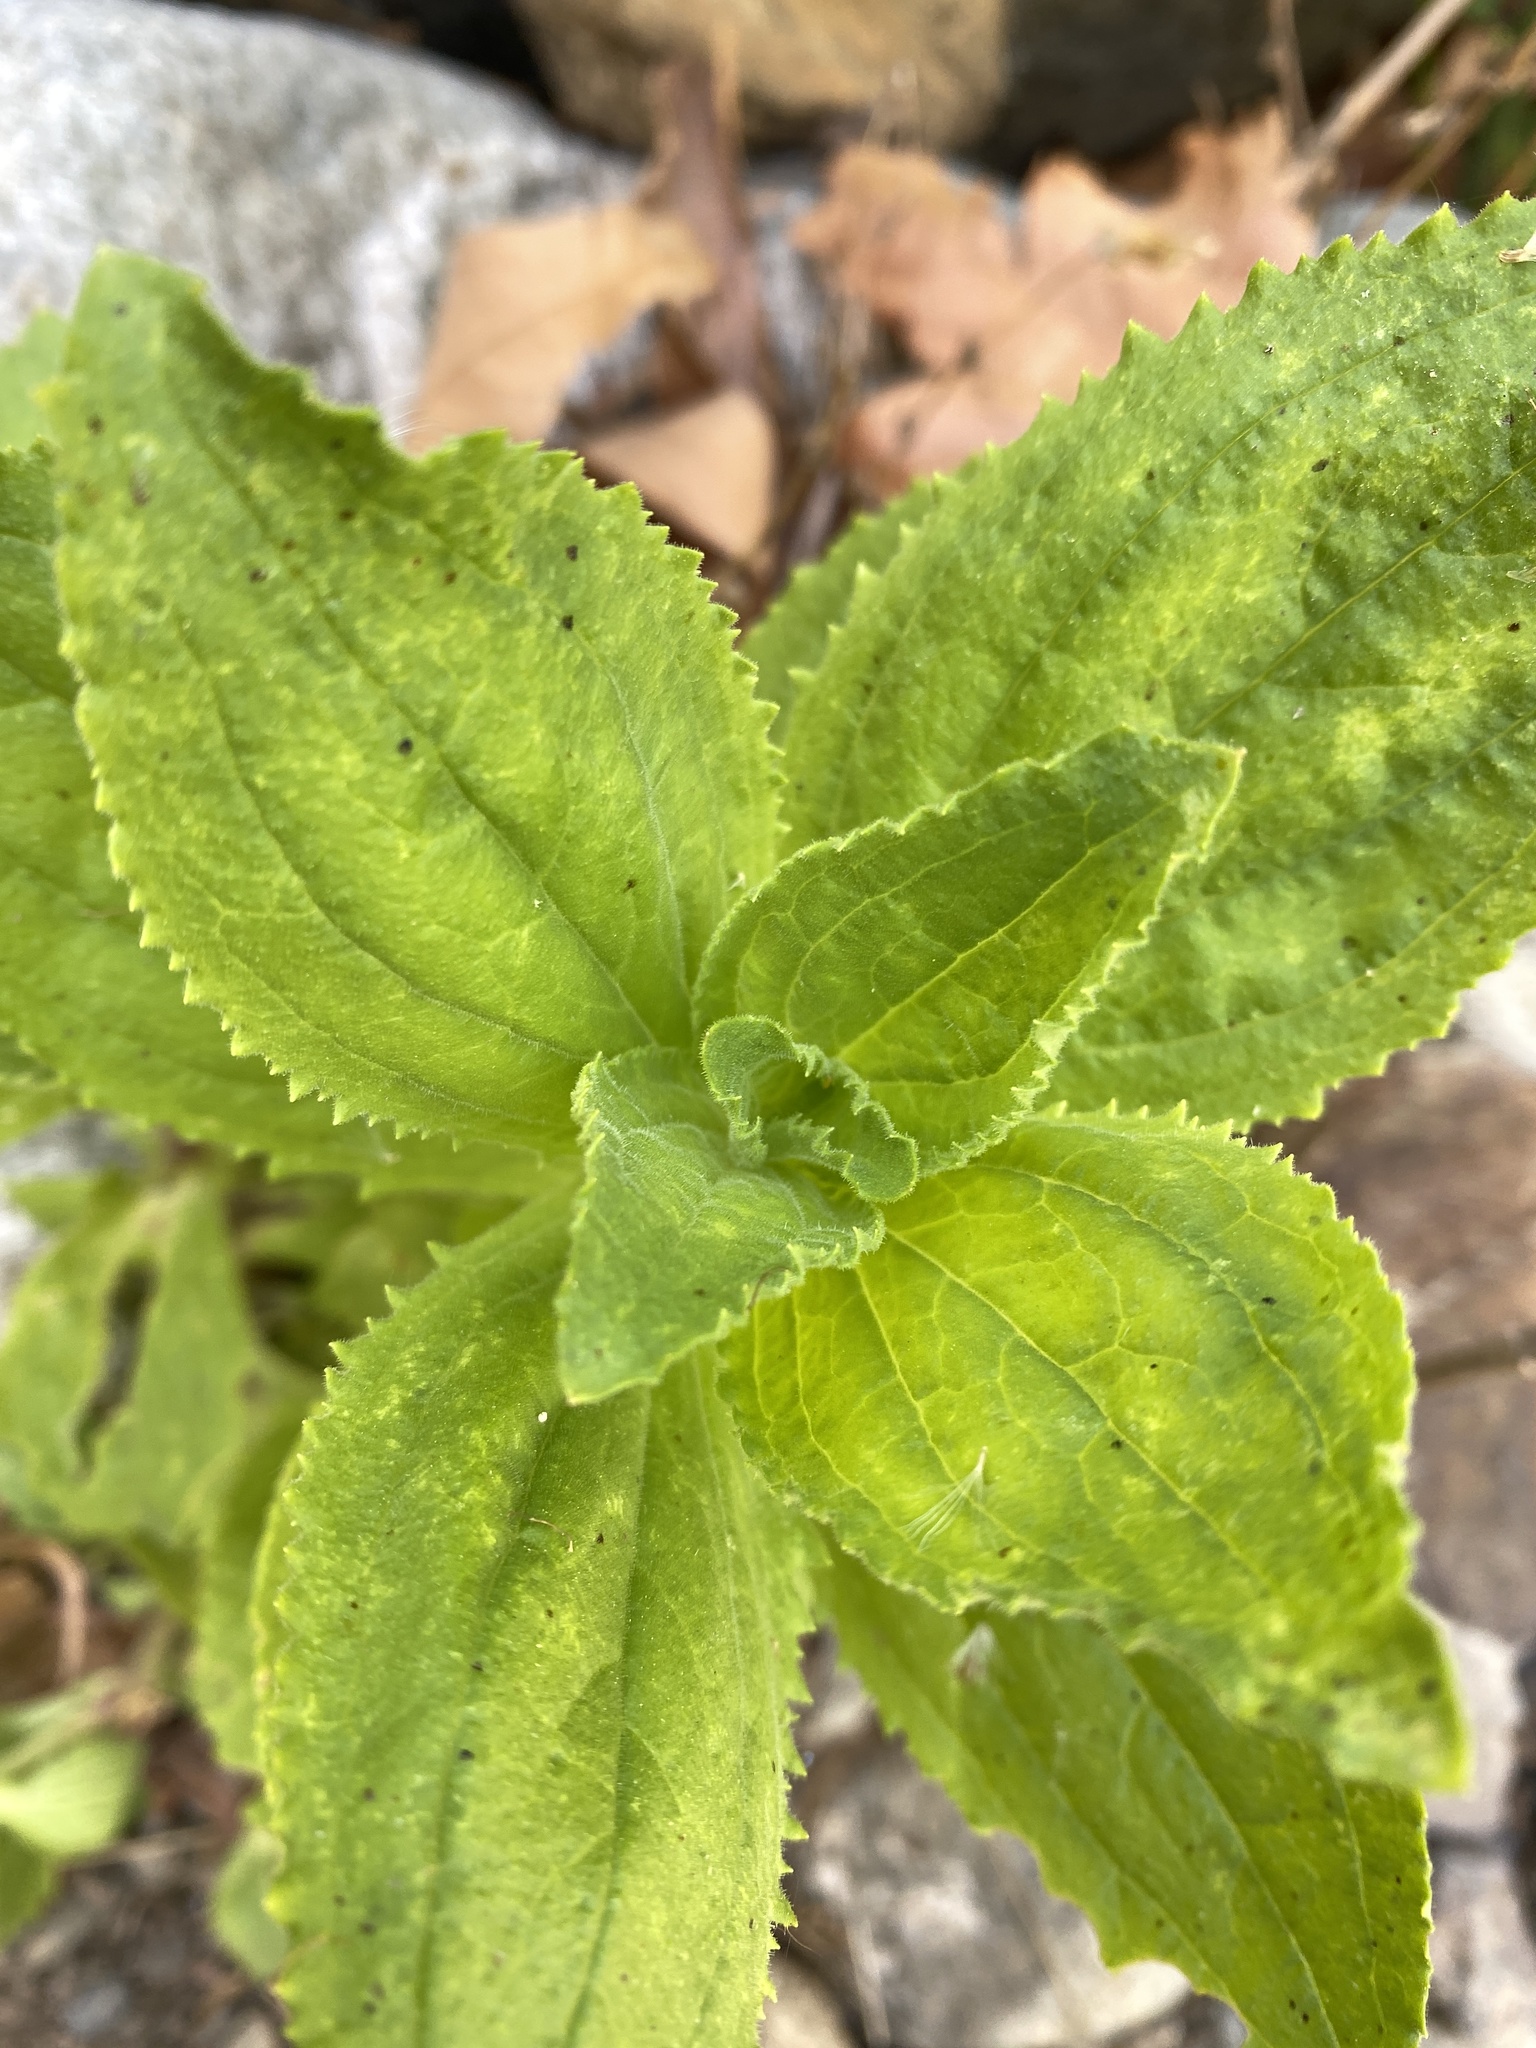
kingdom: Plantae
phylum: Tracheophyta
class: Magnoliopsida
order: Lamiales
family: Phrymaceae
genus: Erythranthe
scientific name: Erythranthe cardinalis
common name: Scarlet monkey-flower
